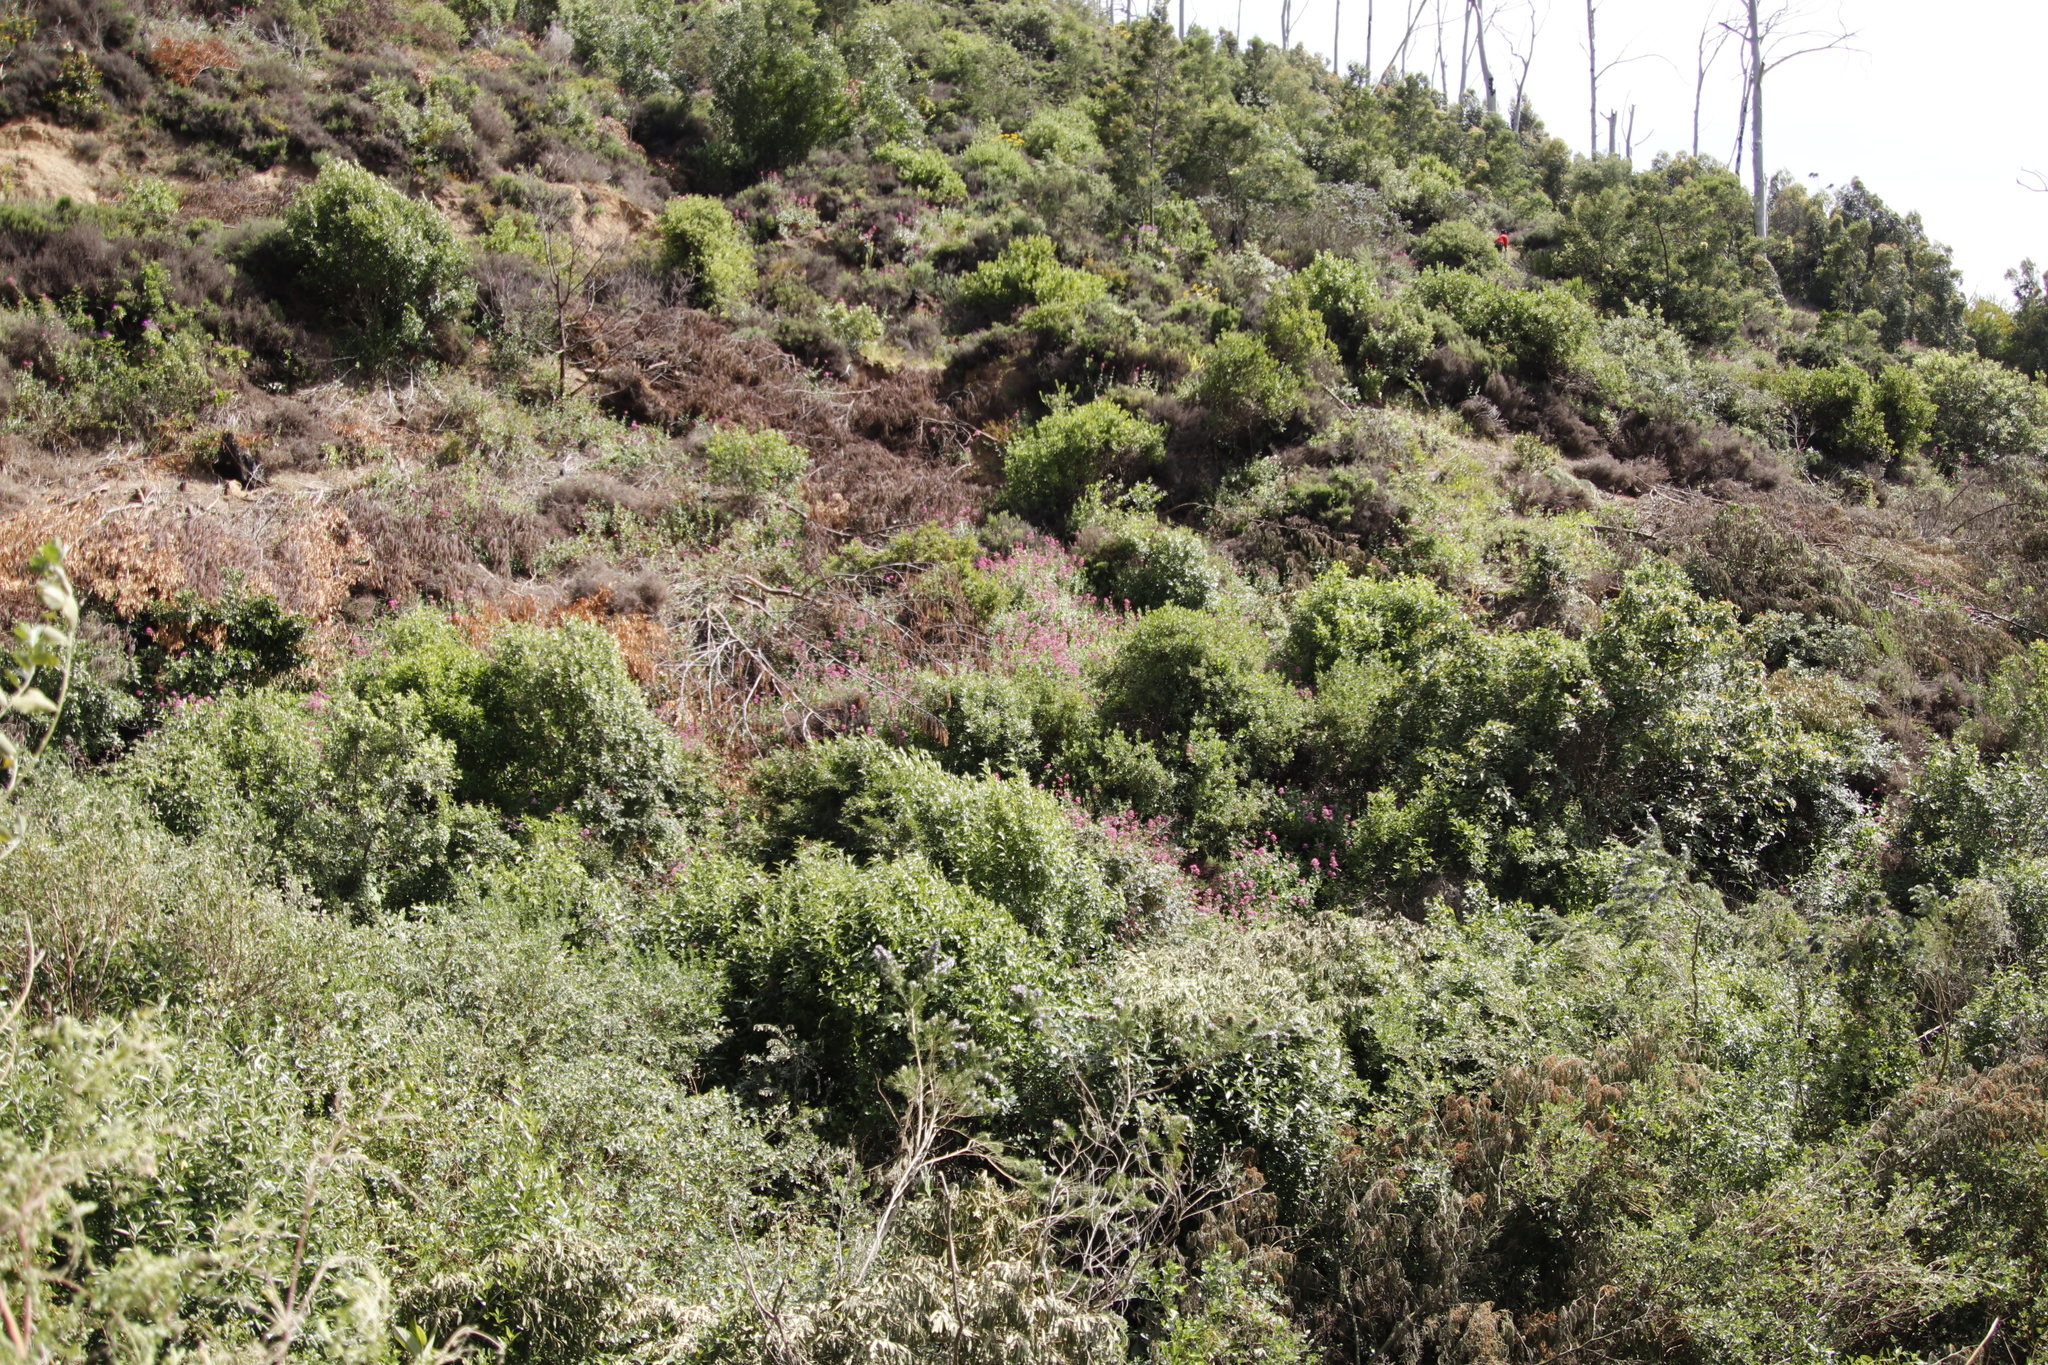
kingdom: Plantae
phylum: Tracheophyta
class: Magnoliopsida
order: Dipsacales
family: Caprifoliaceae
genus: Centranthus
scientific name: Centranthus ruber
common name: Red valerian
